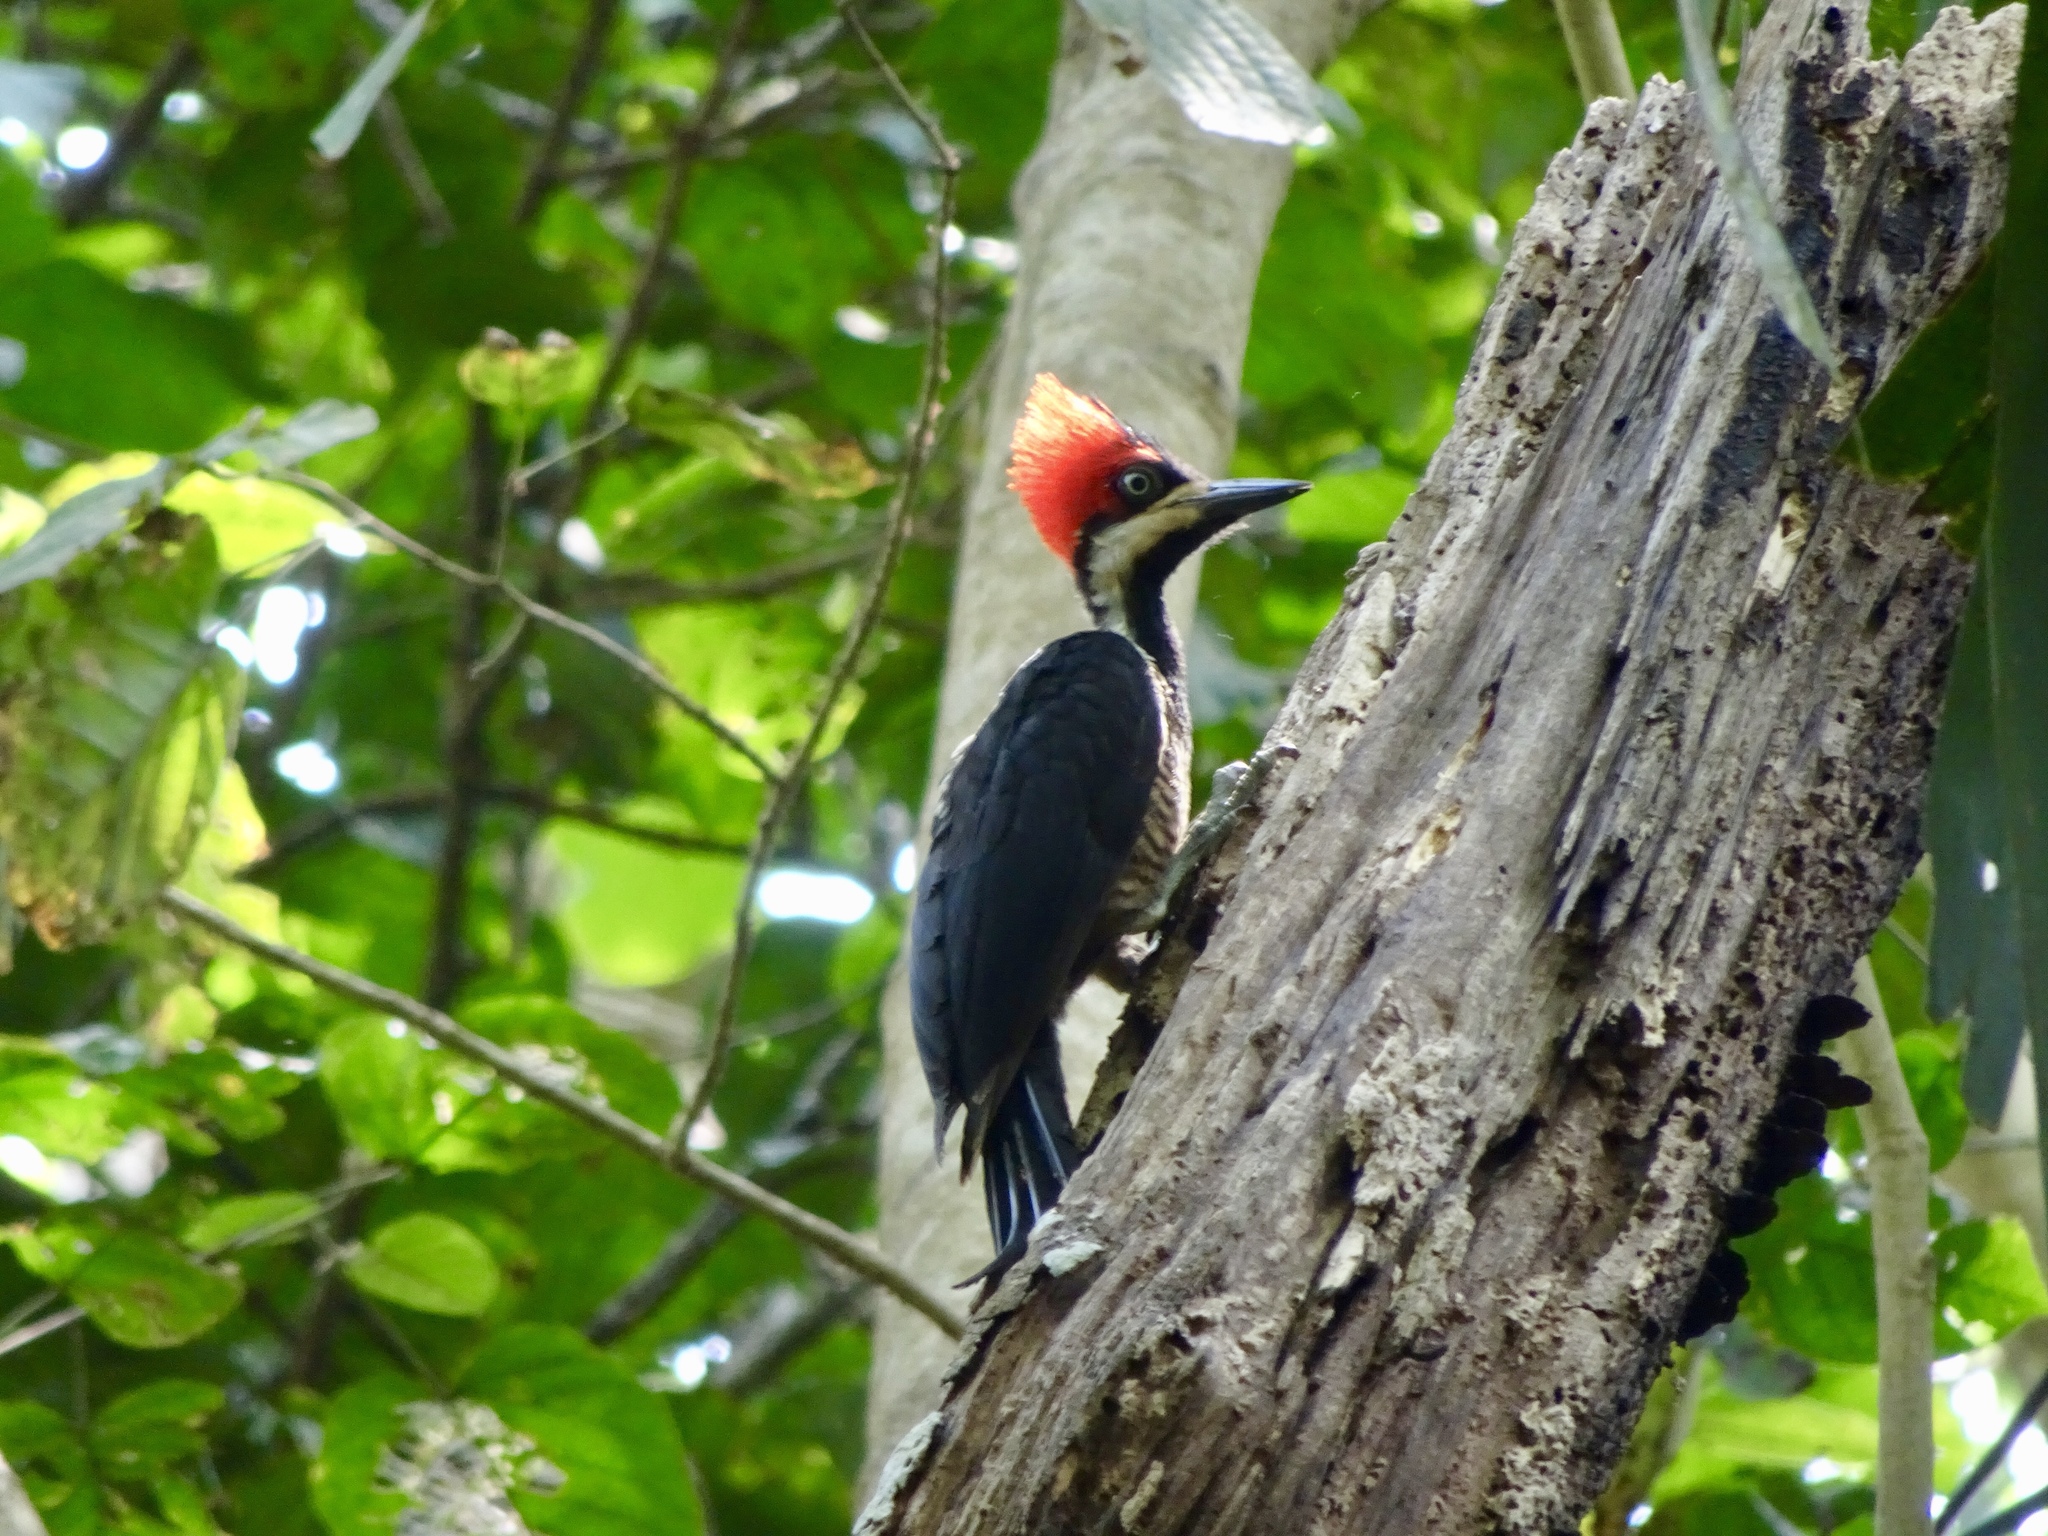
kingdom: Animalia
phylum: Chordata
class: Aves
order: Piciformes
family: Picidae
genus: Campephilus
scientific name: Campephilus melanoleucos
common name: Crimson-crested woodpecker
